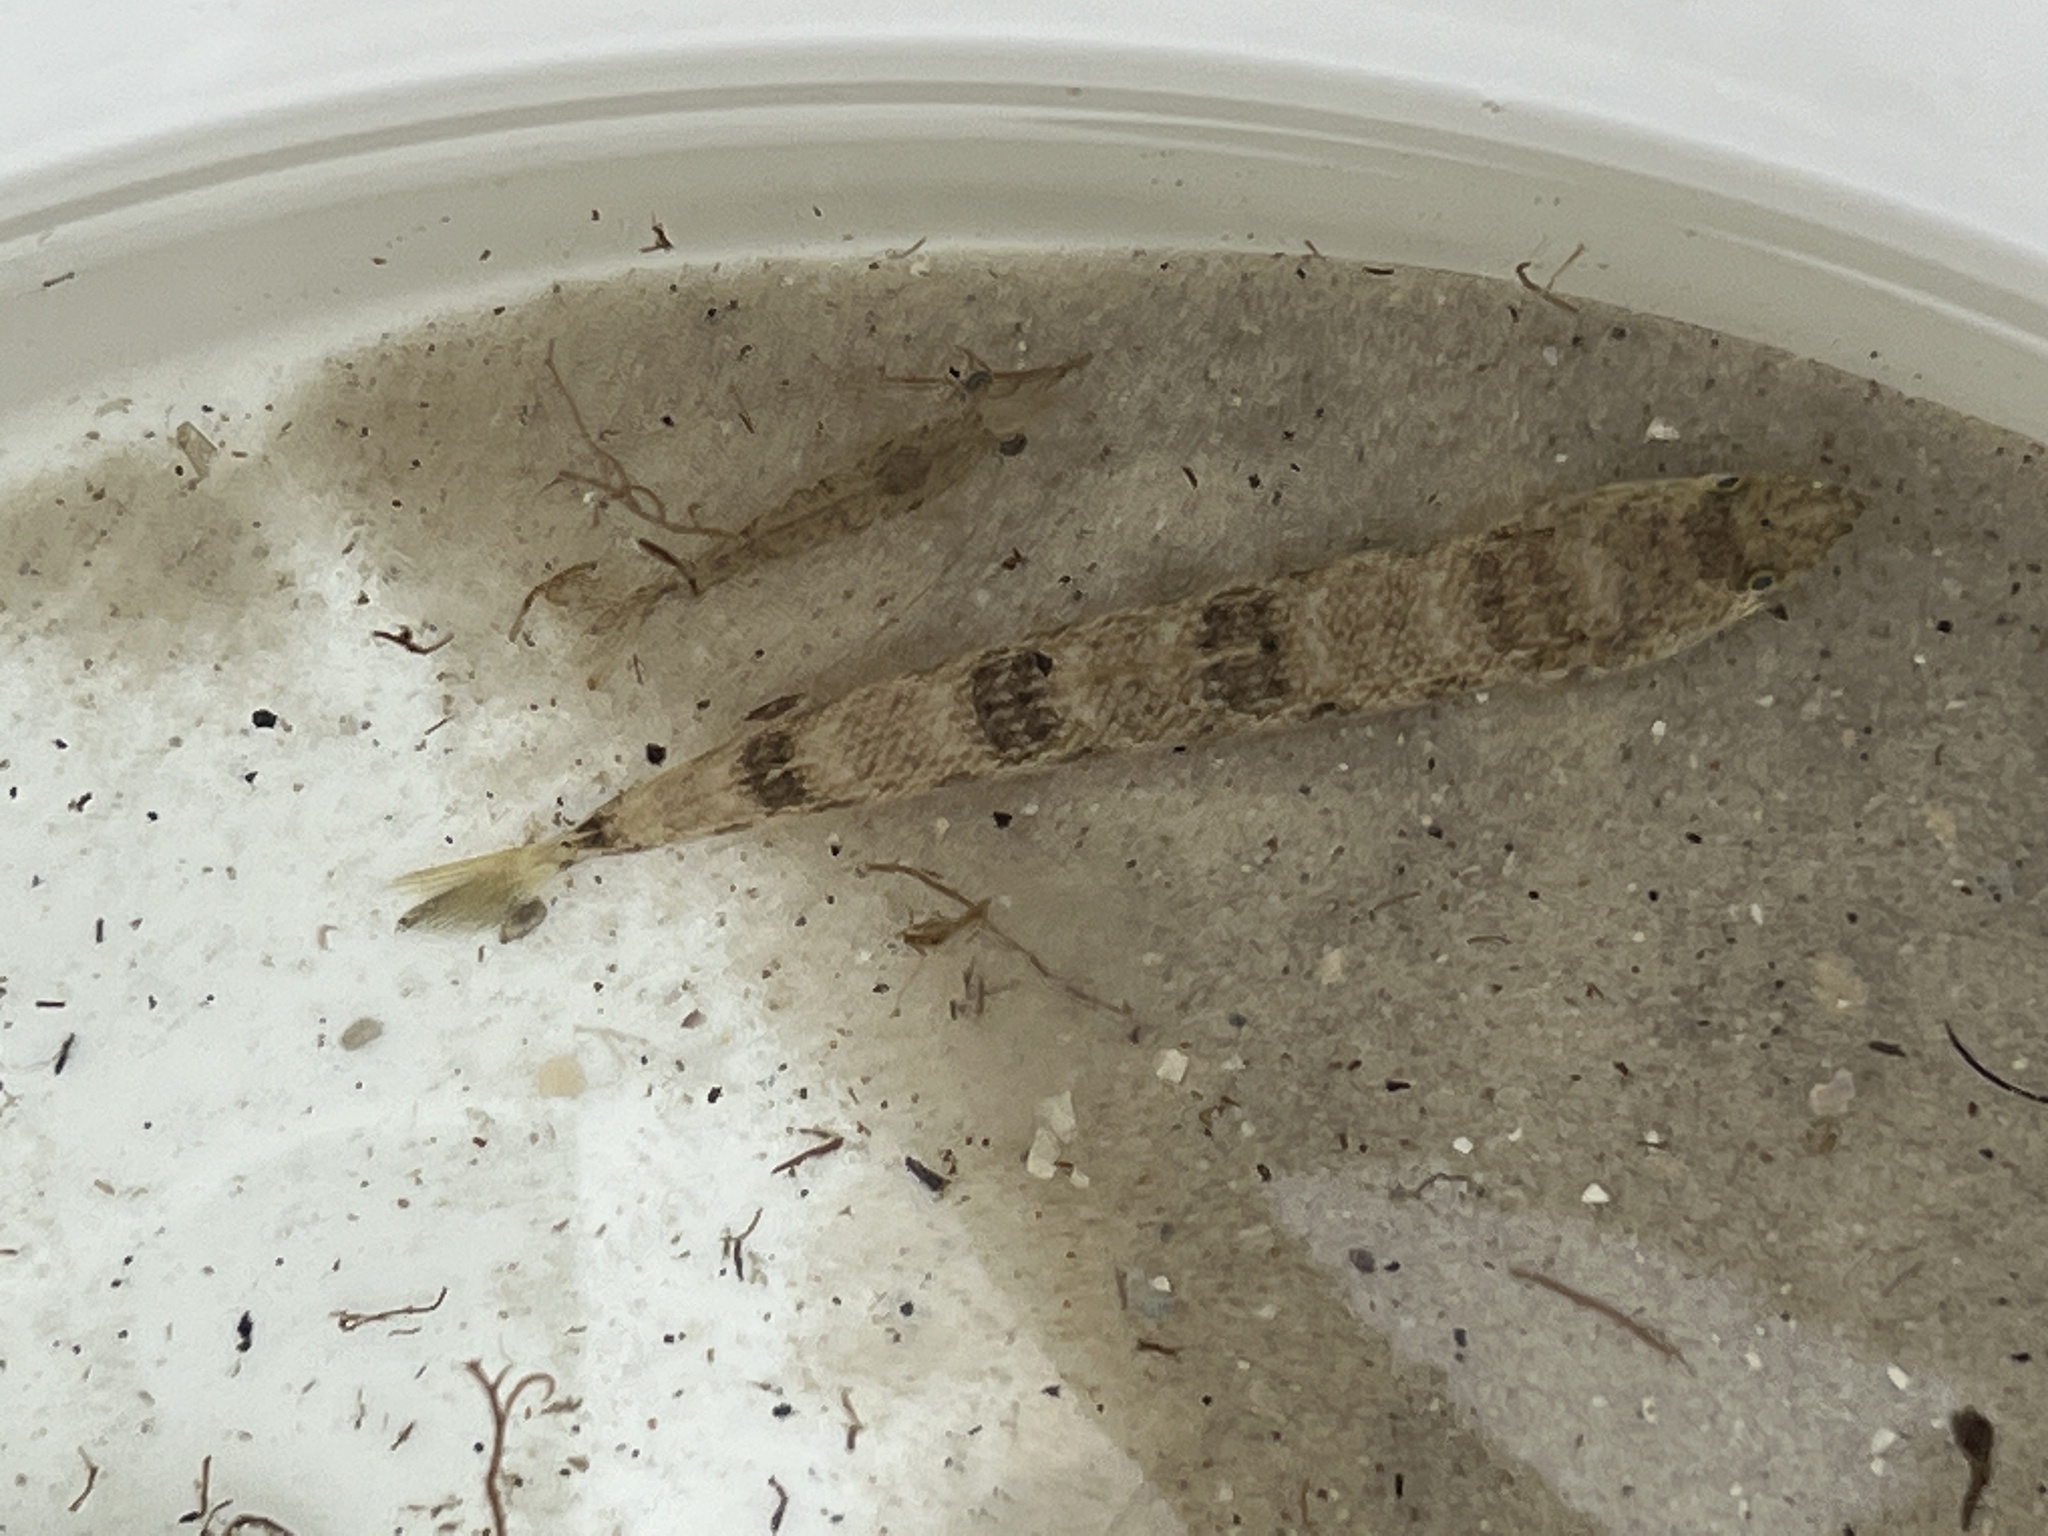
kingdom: Animalia
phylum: Chordata
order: Aulopiformes
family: Synodontidae
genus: Synodus
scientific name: Synodus foetens
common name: Inshore lizardfish
